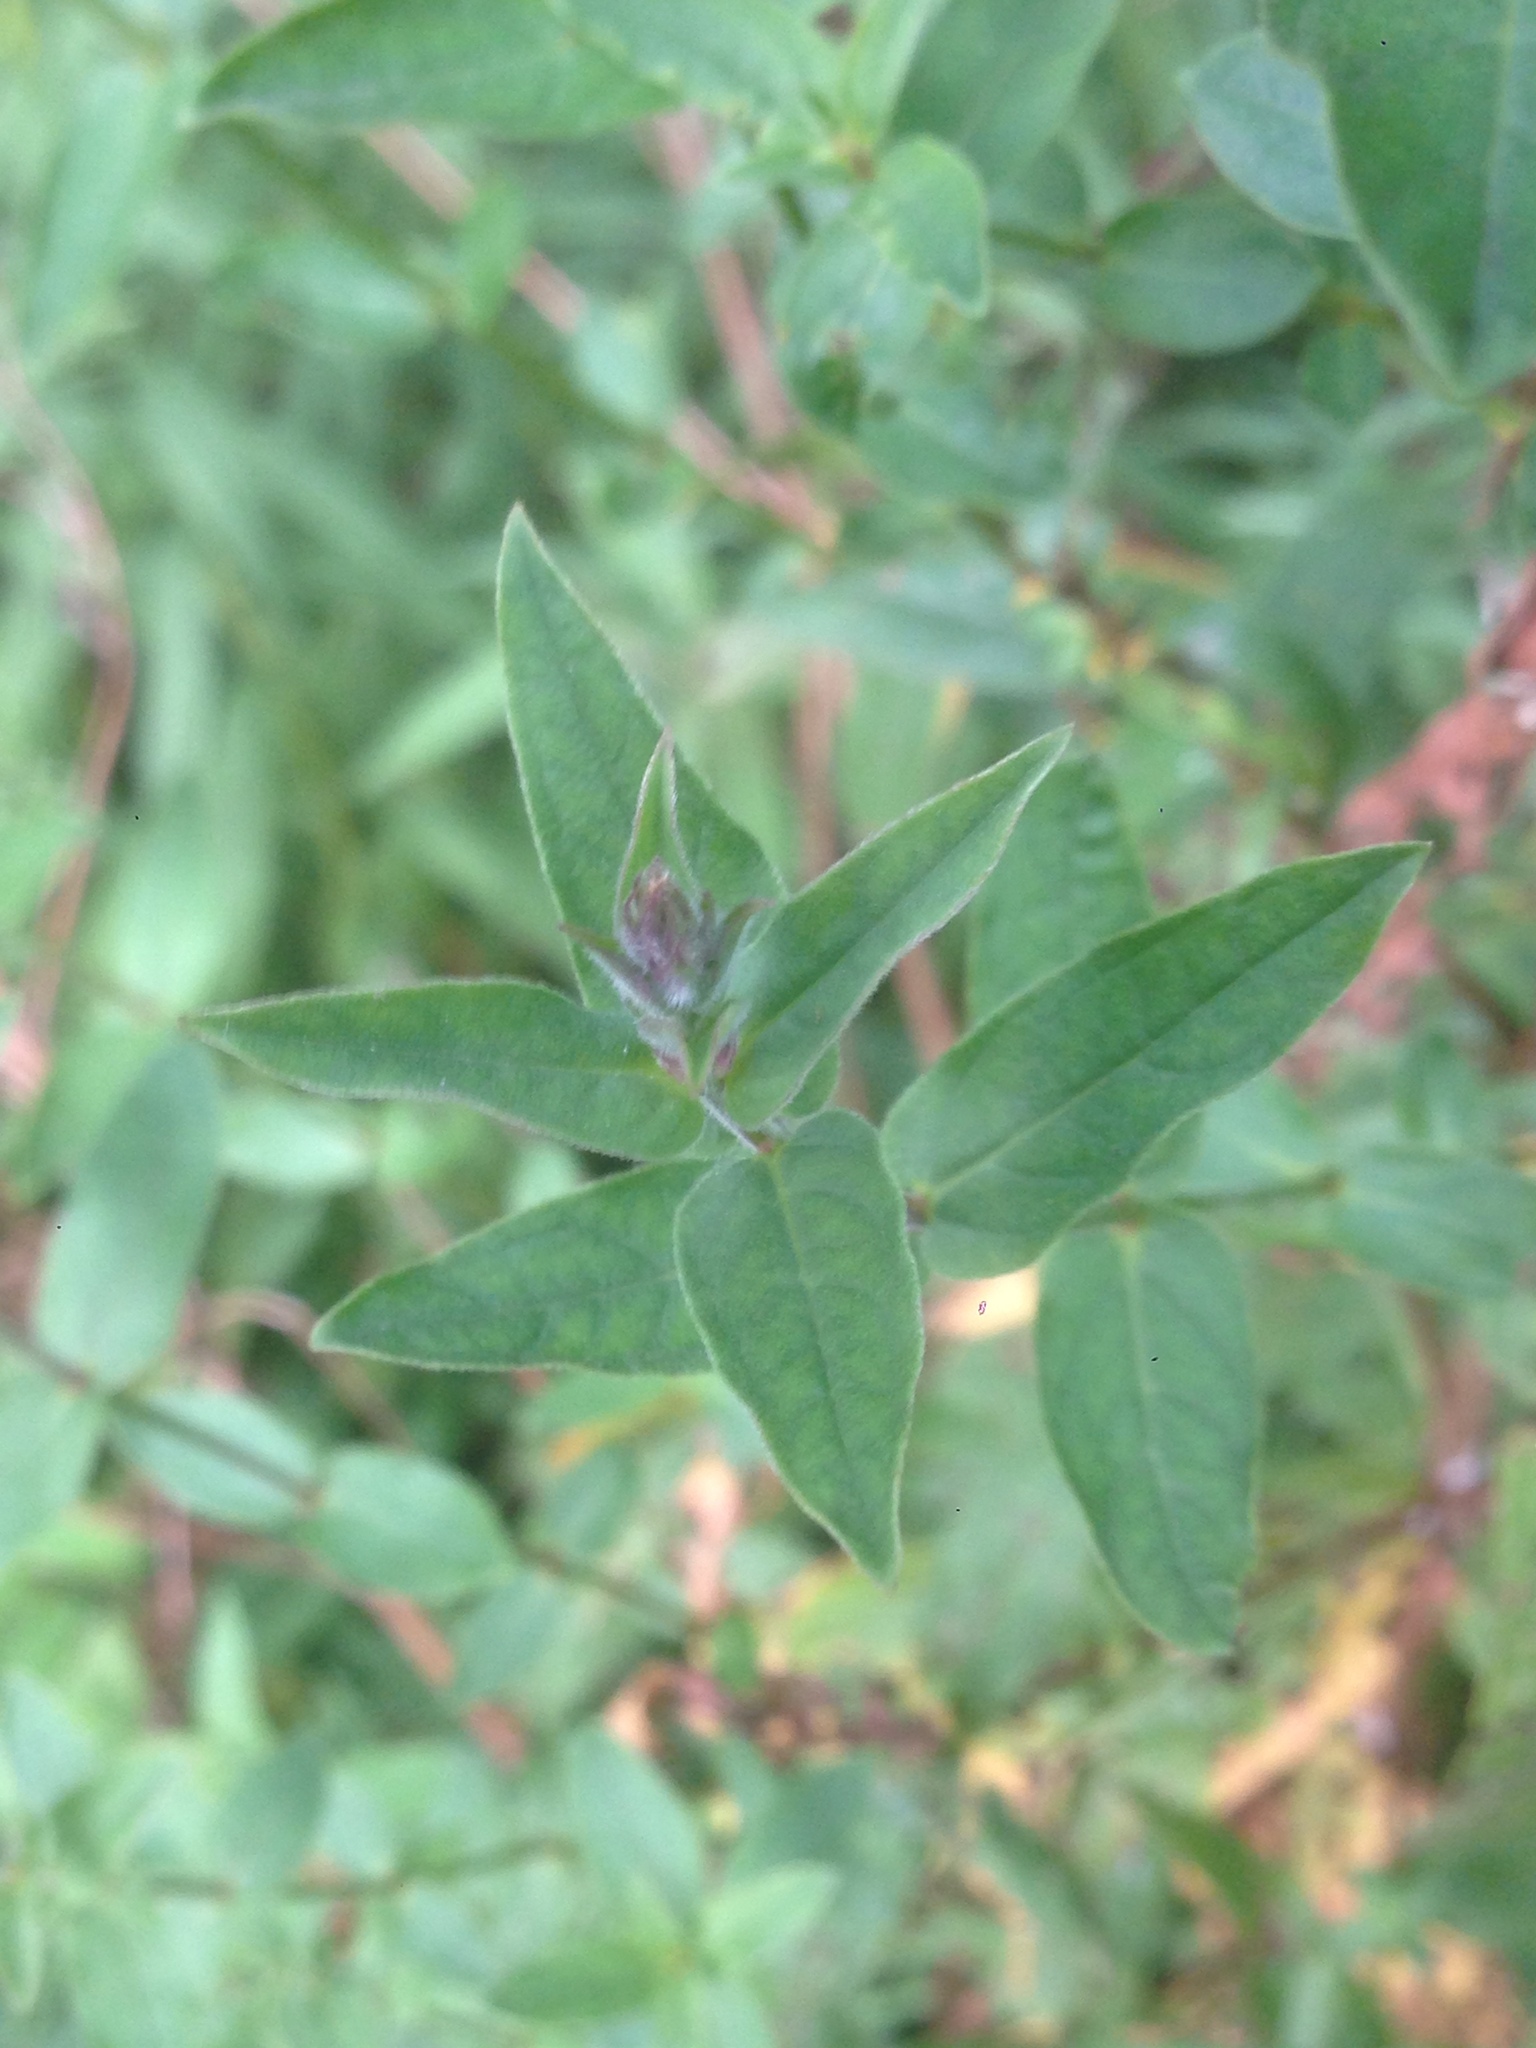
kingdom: Plantae
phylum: Tracheophyta
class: Magnoliopsida
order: Myrtales
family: Lythraceae
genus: Lythrum
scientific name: Lythrum salicaria
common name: Purple loosestrife
